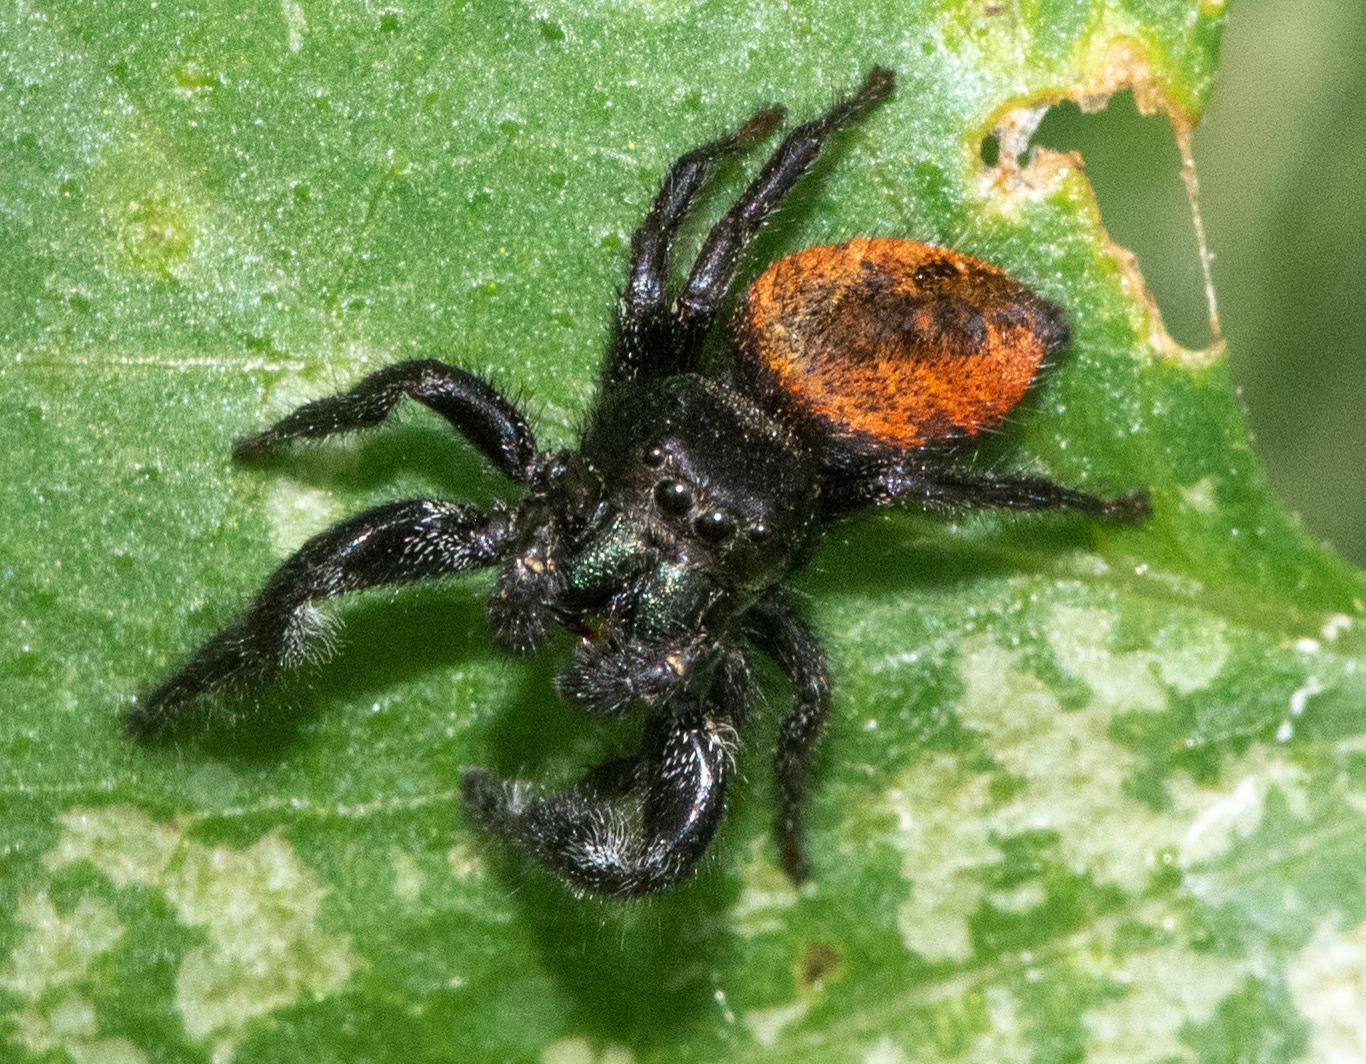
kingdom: Animalia
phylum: Arthropoda
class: Arachnida
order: Araneae
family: Salticidae
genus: Phidippus
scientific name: Phidippus johnsoni
